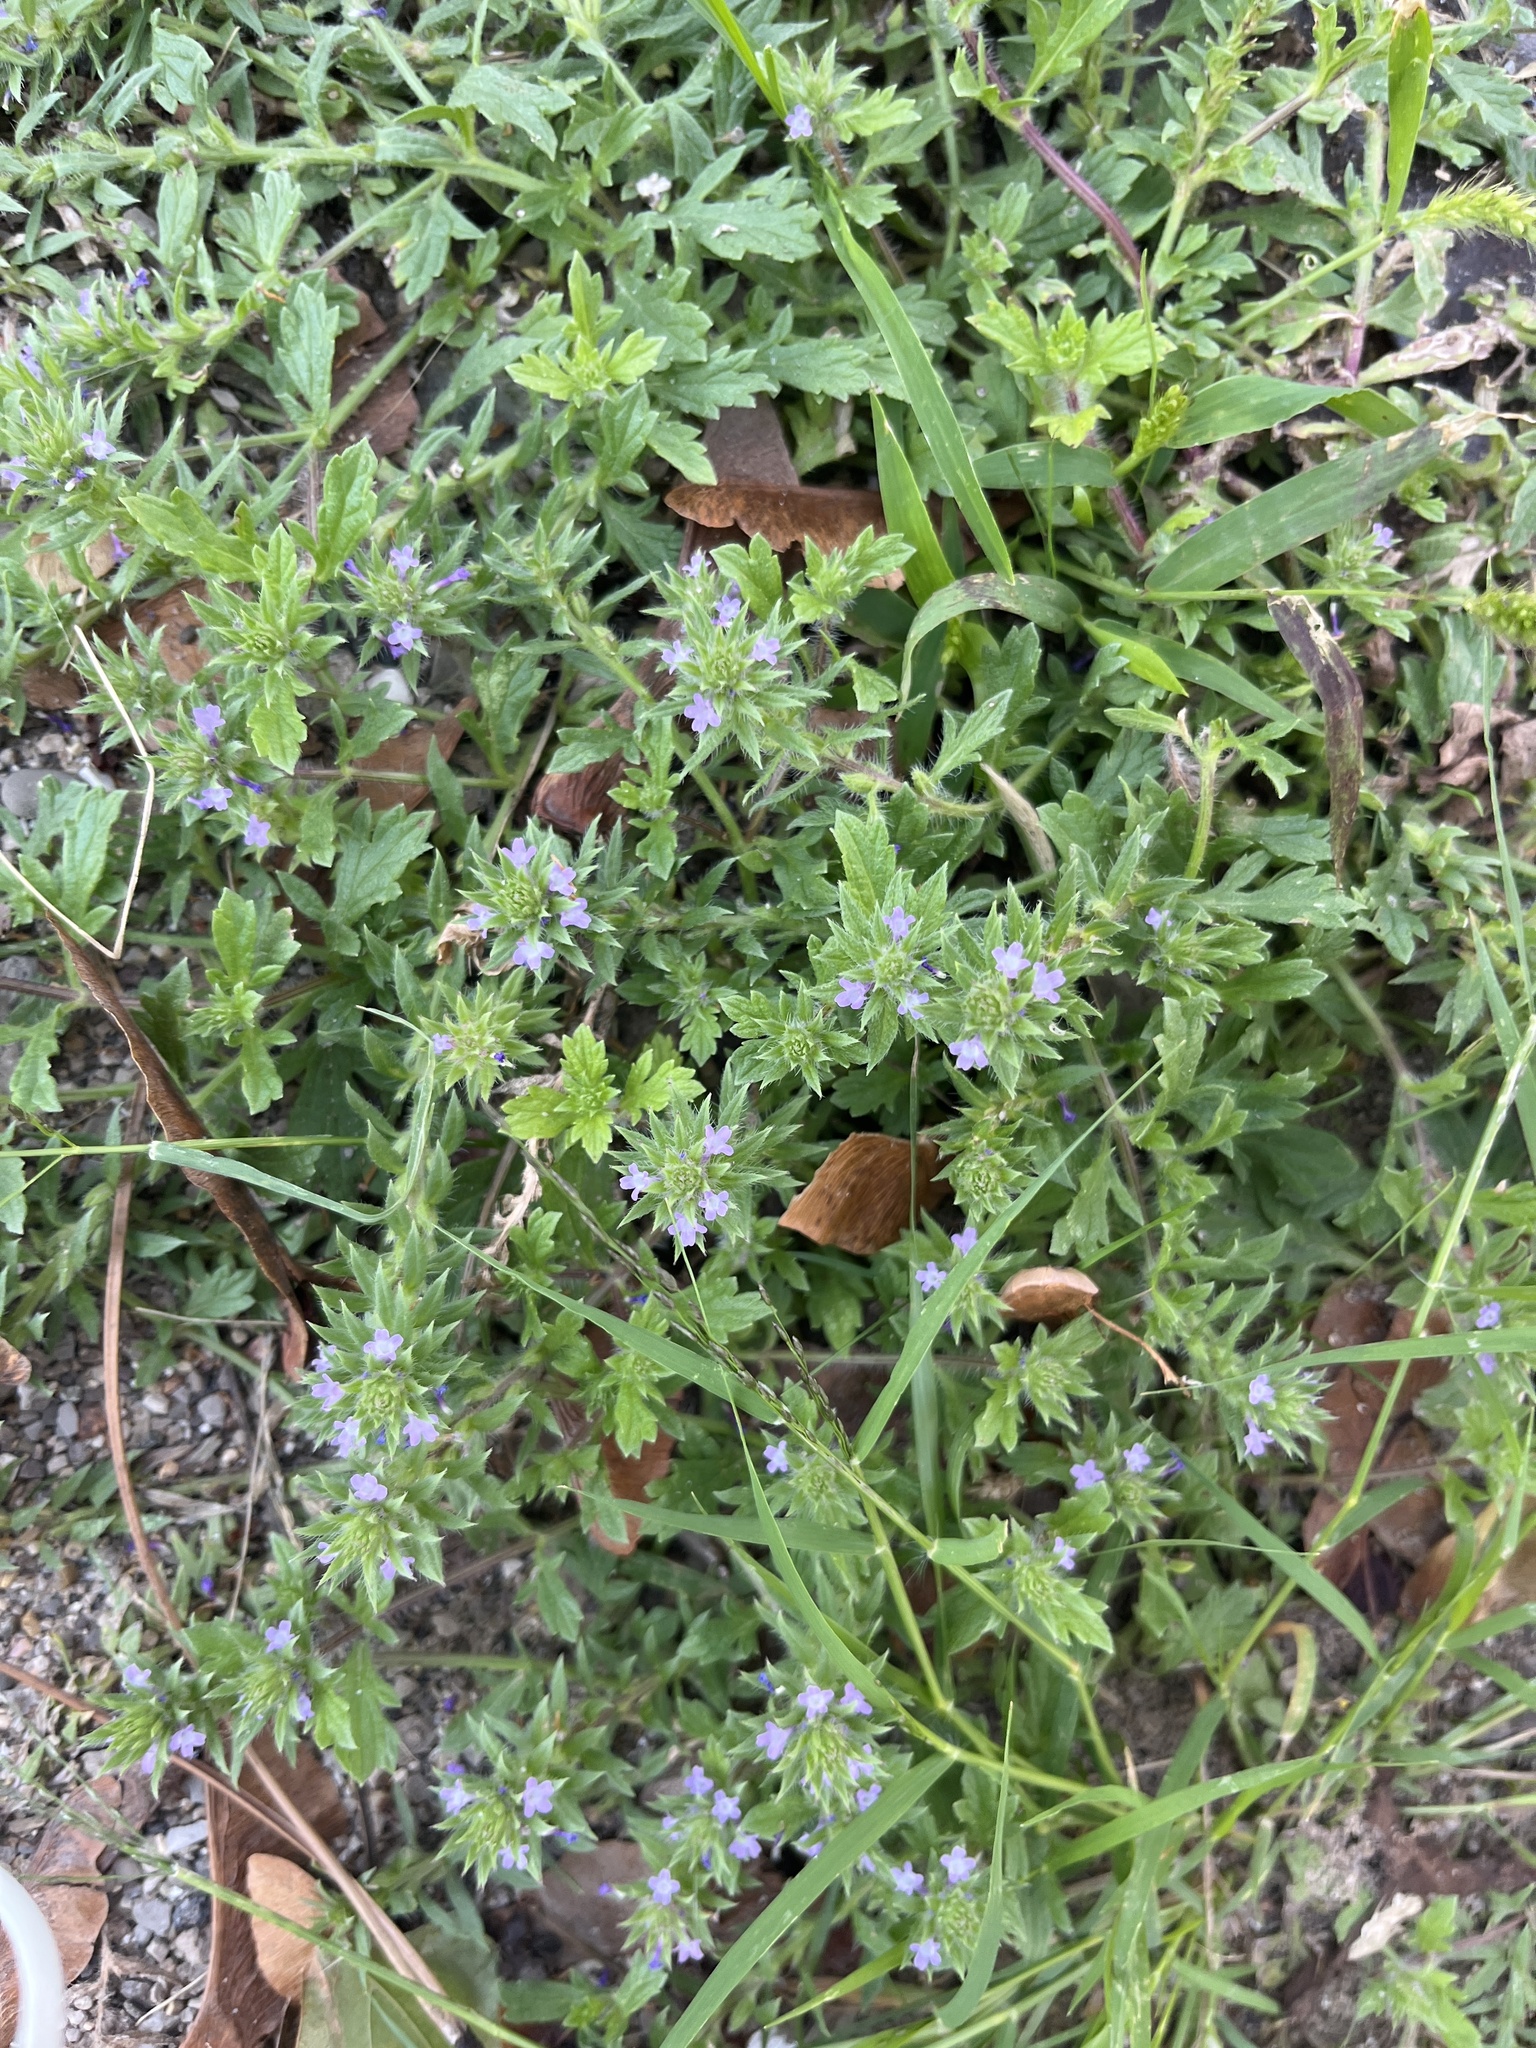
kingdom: Plantae
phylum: Tracheophyta
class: Magnoliopsida
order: Lamiales
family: Verbenaceae
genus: Verbena
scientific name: Verbena bracteata
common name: Bracted vervain
